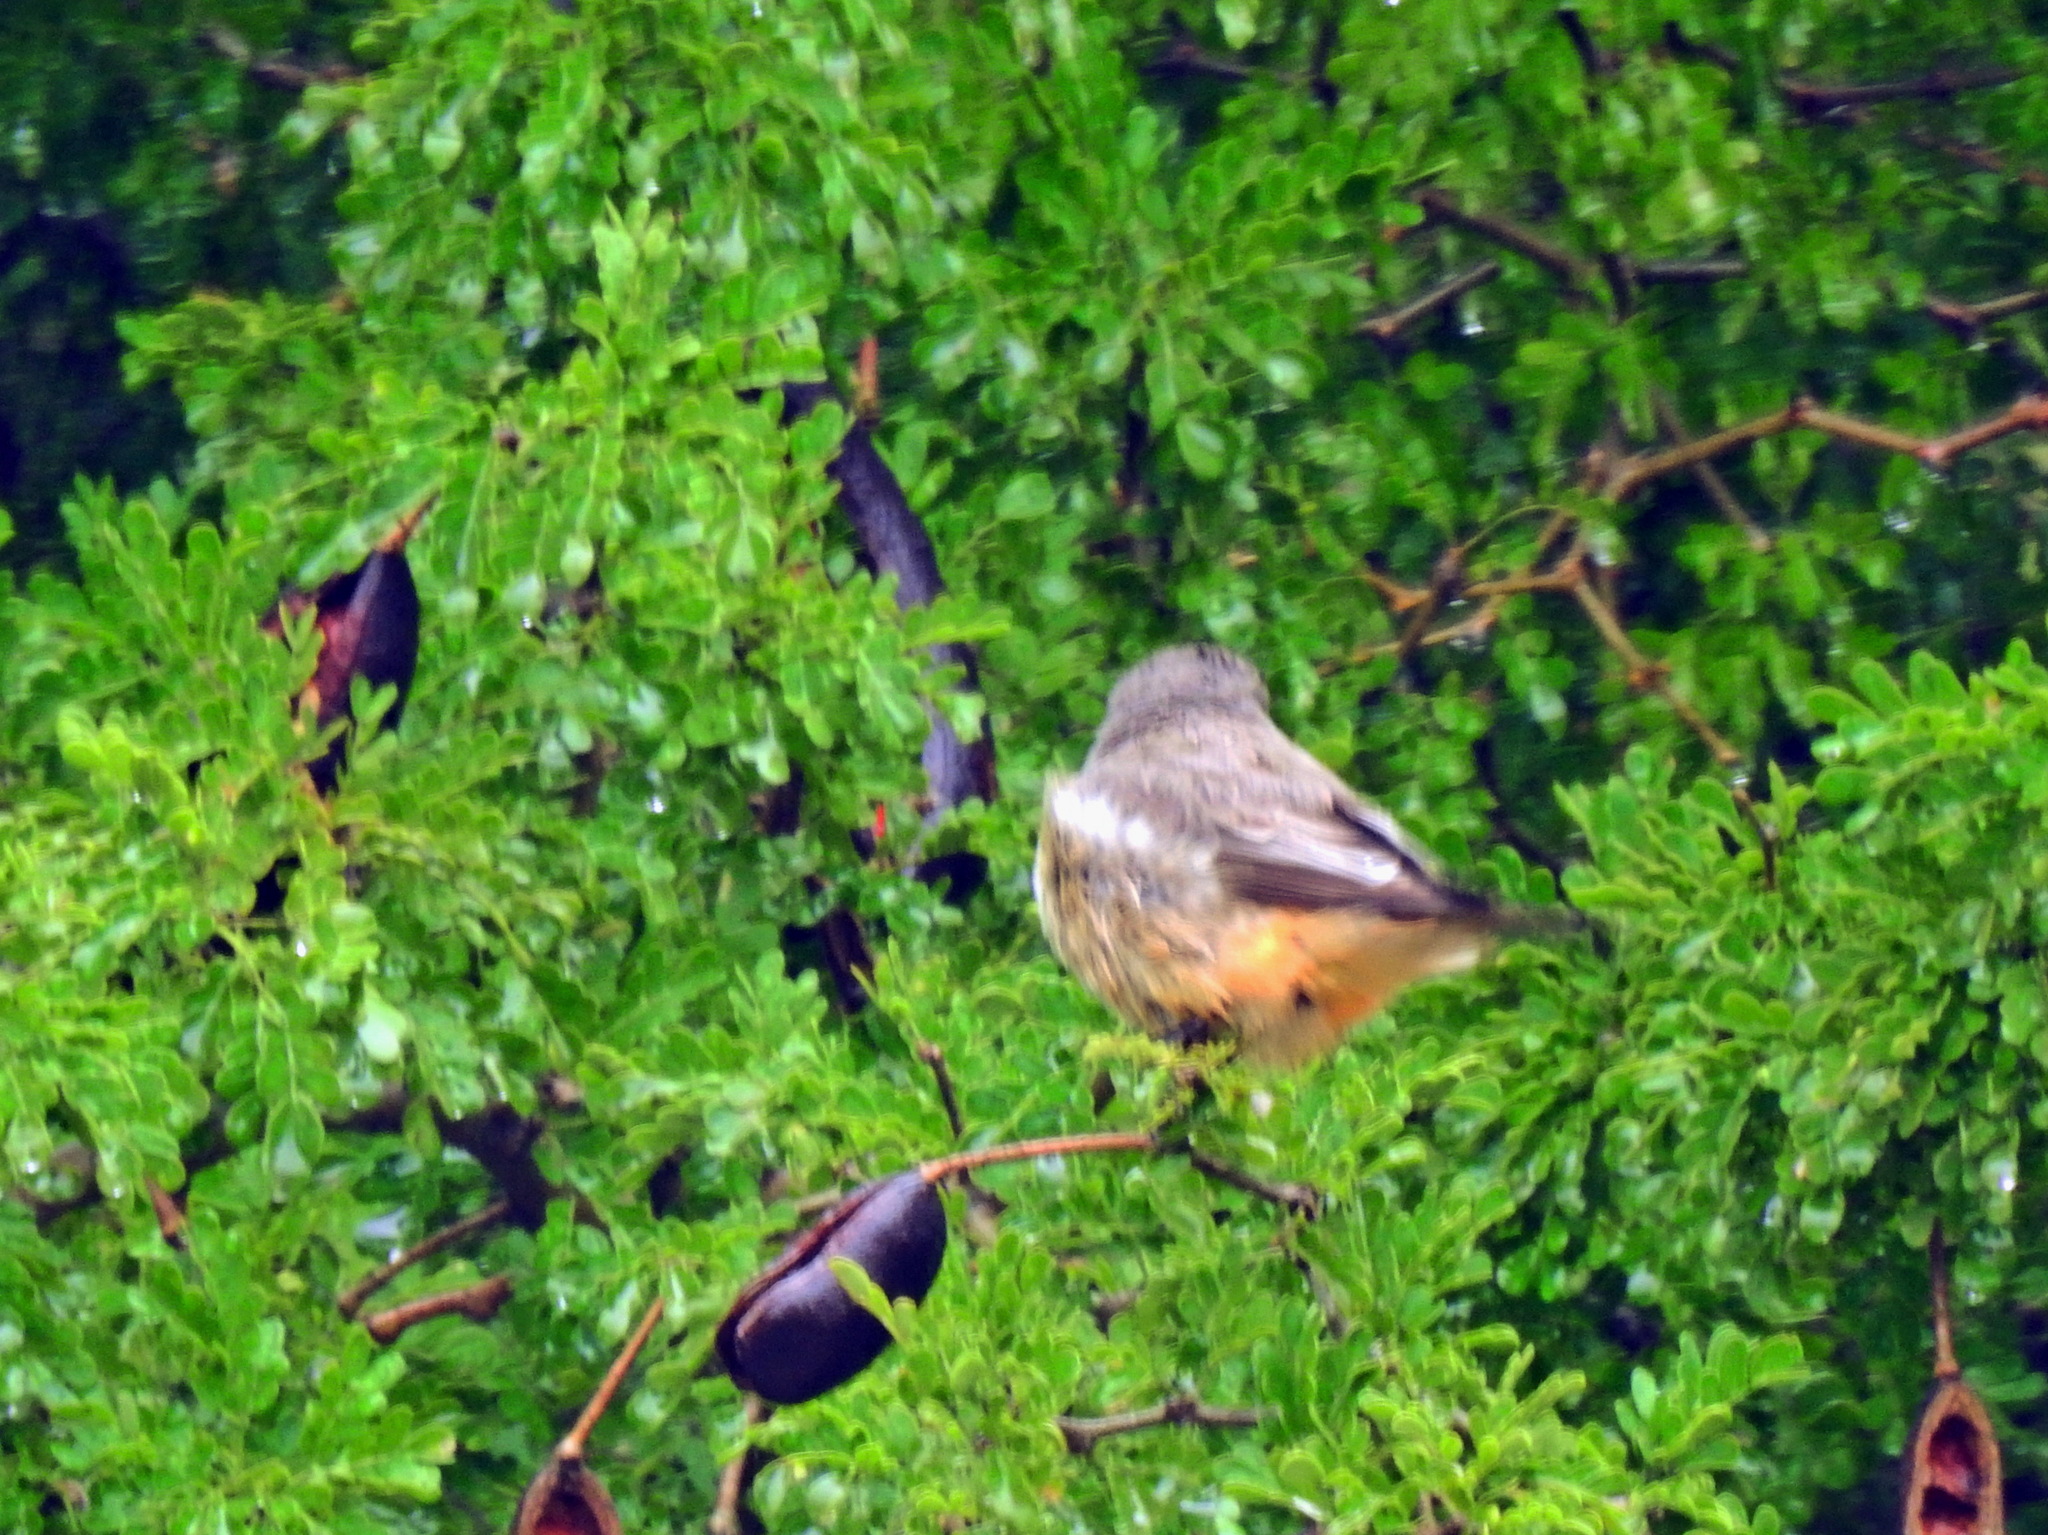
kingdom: Animalia
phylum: Chordata
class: Aves
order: Passeriformes
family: Tyrannidae
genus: Pyrocephalus
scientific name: Pyrocephalus rubinus
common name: Vermilion flycatcher
